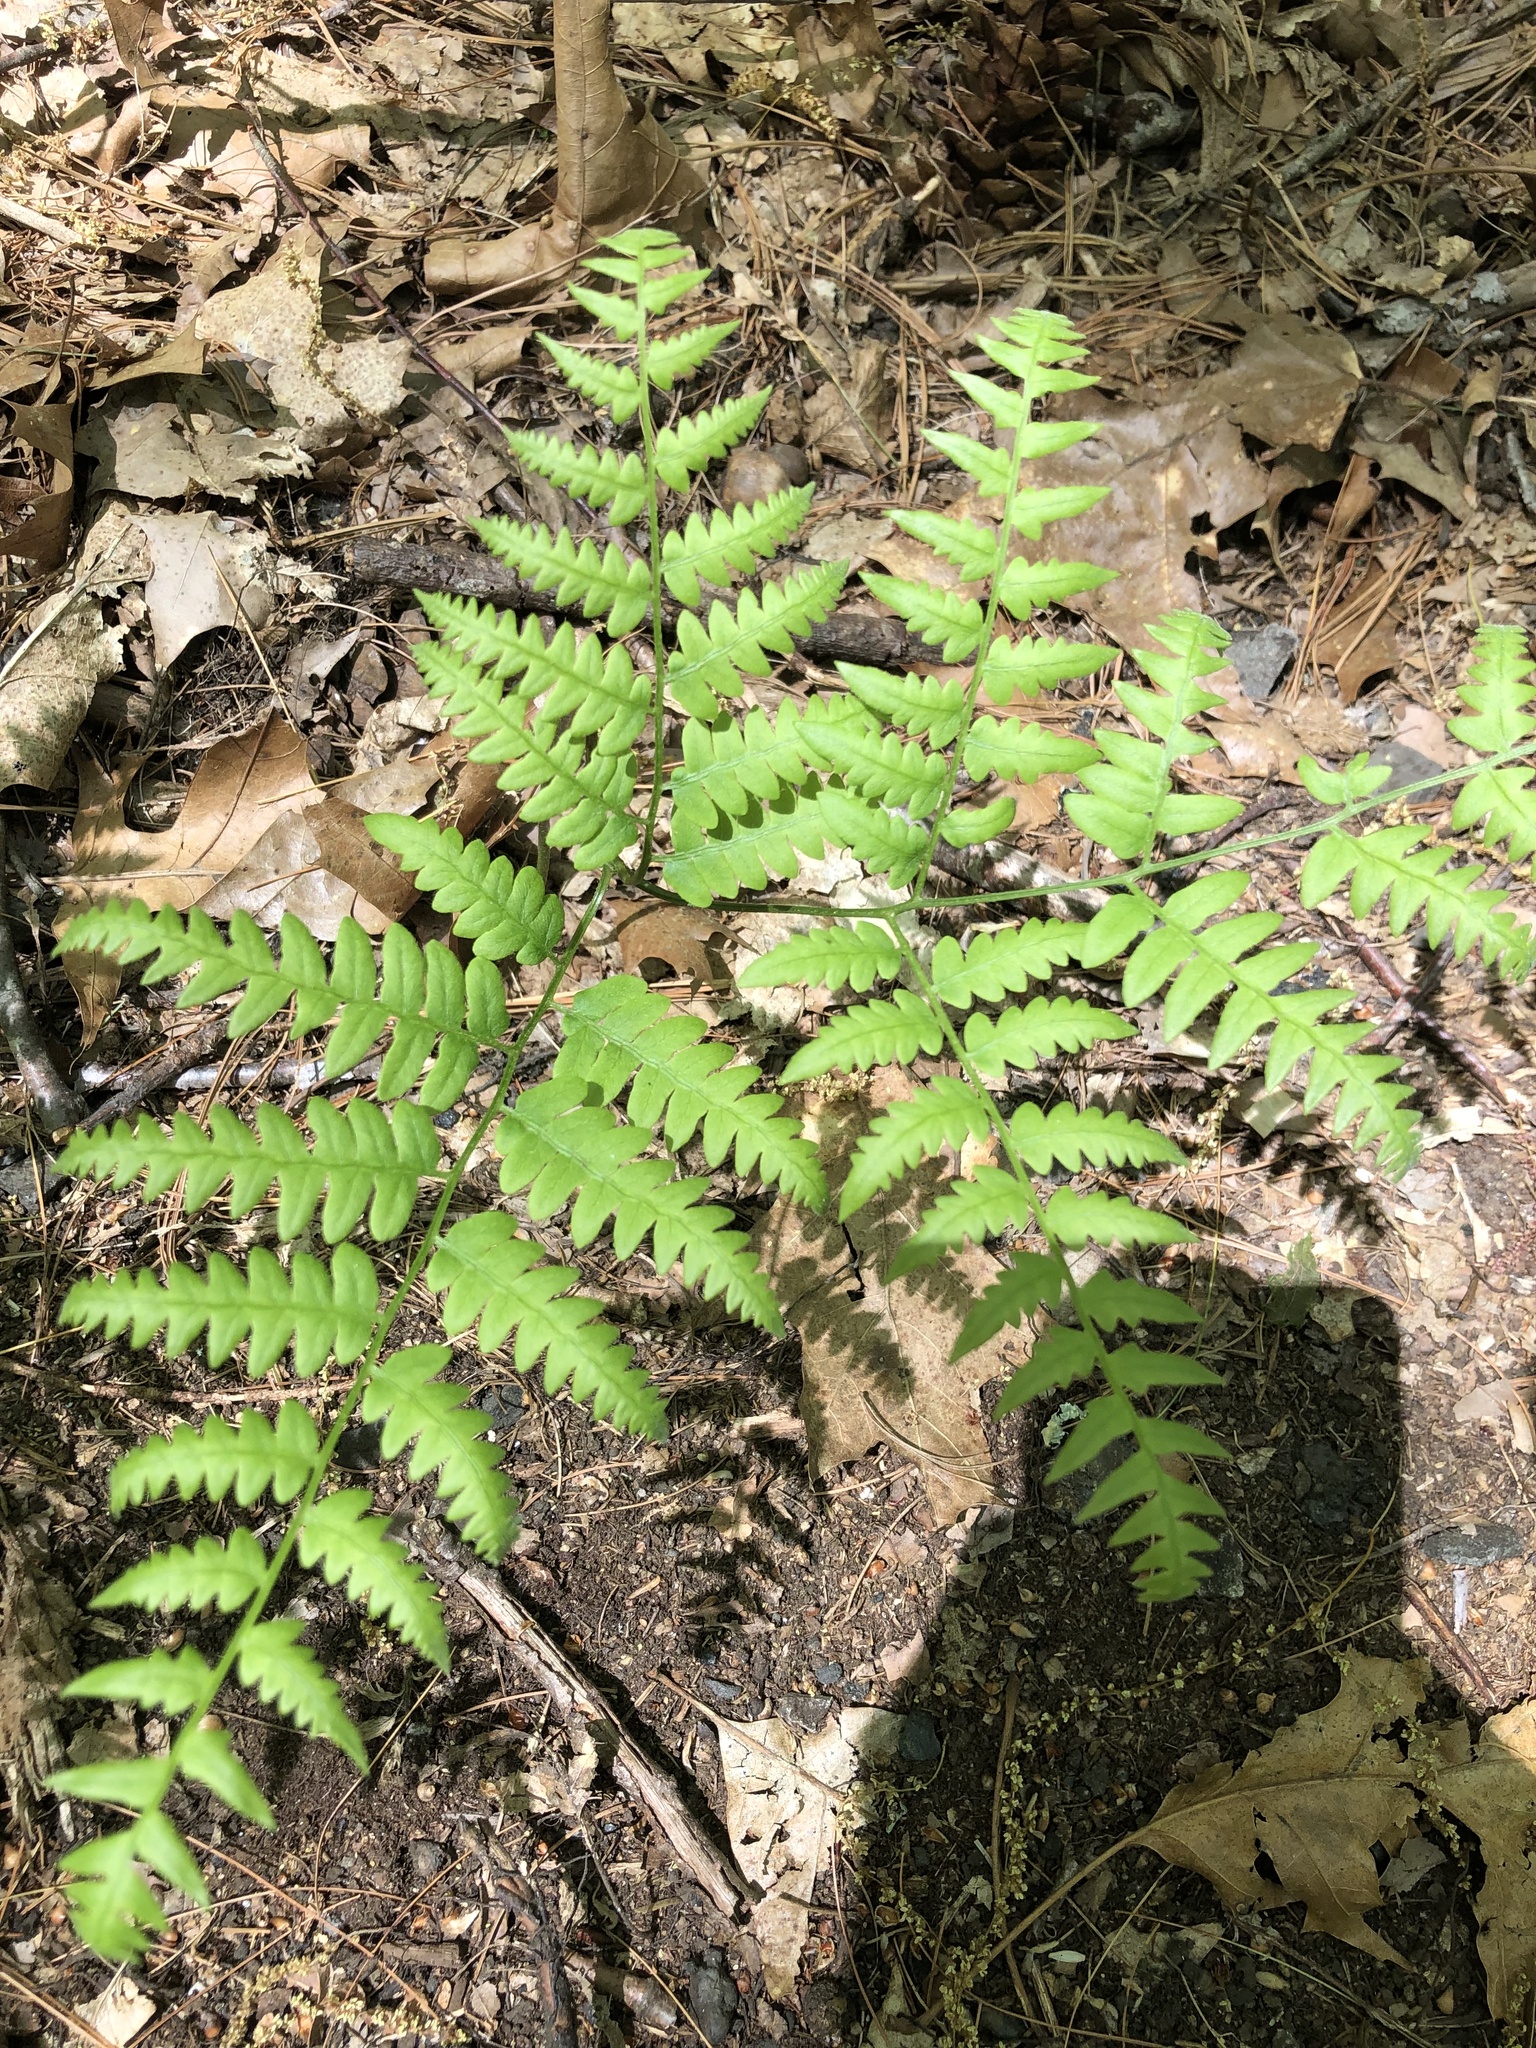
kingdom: Plantae
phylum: Tracheophyta
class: Polypodiopsida
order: Polypodiales
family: Dennstaedtiaceae
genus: Pteridium
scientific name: Pteridium aquilinum
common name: Bracken
